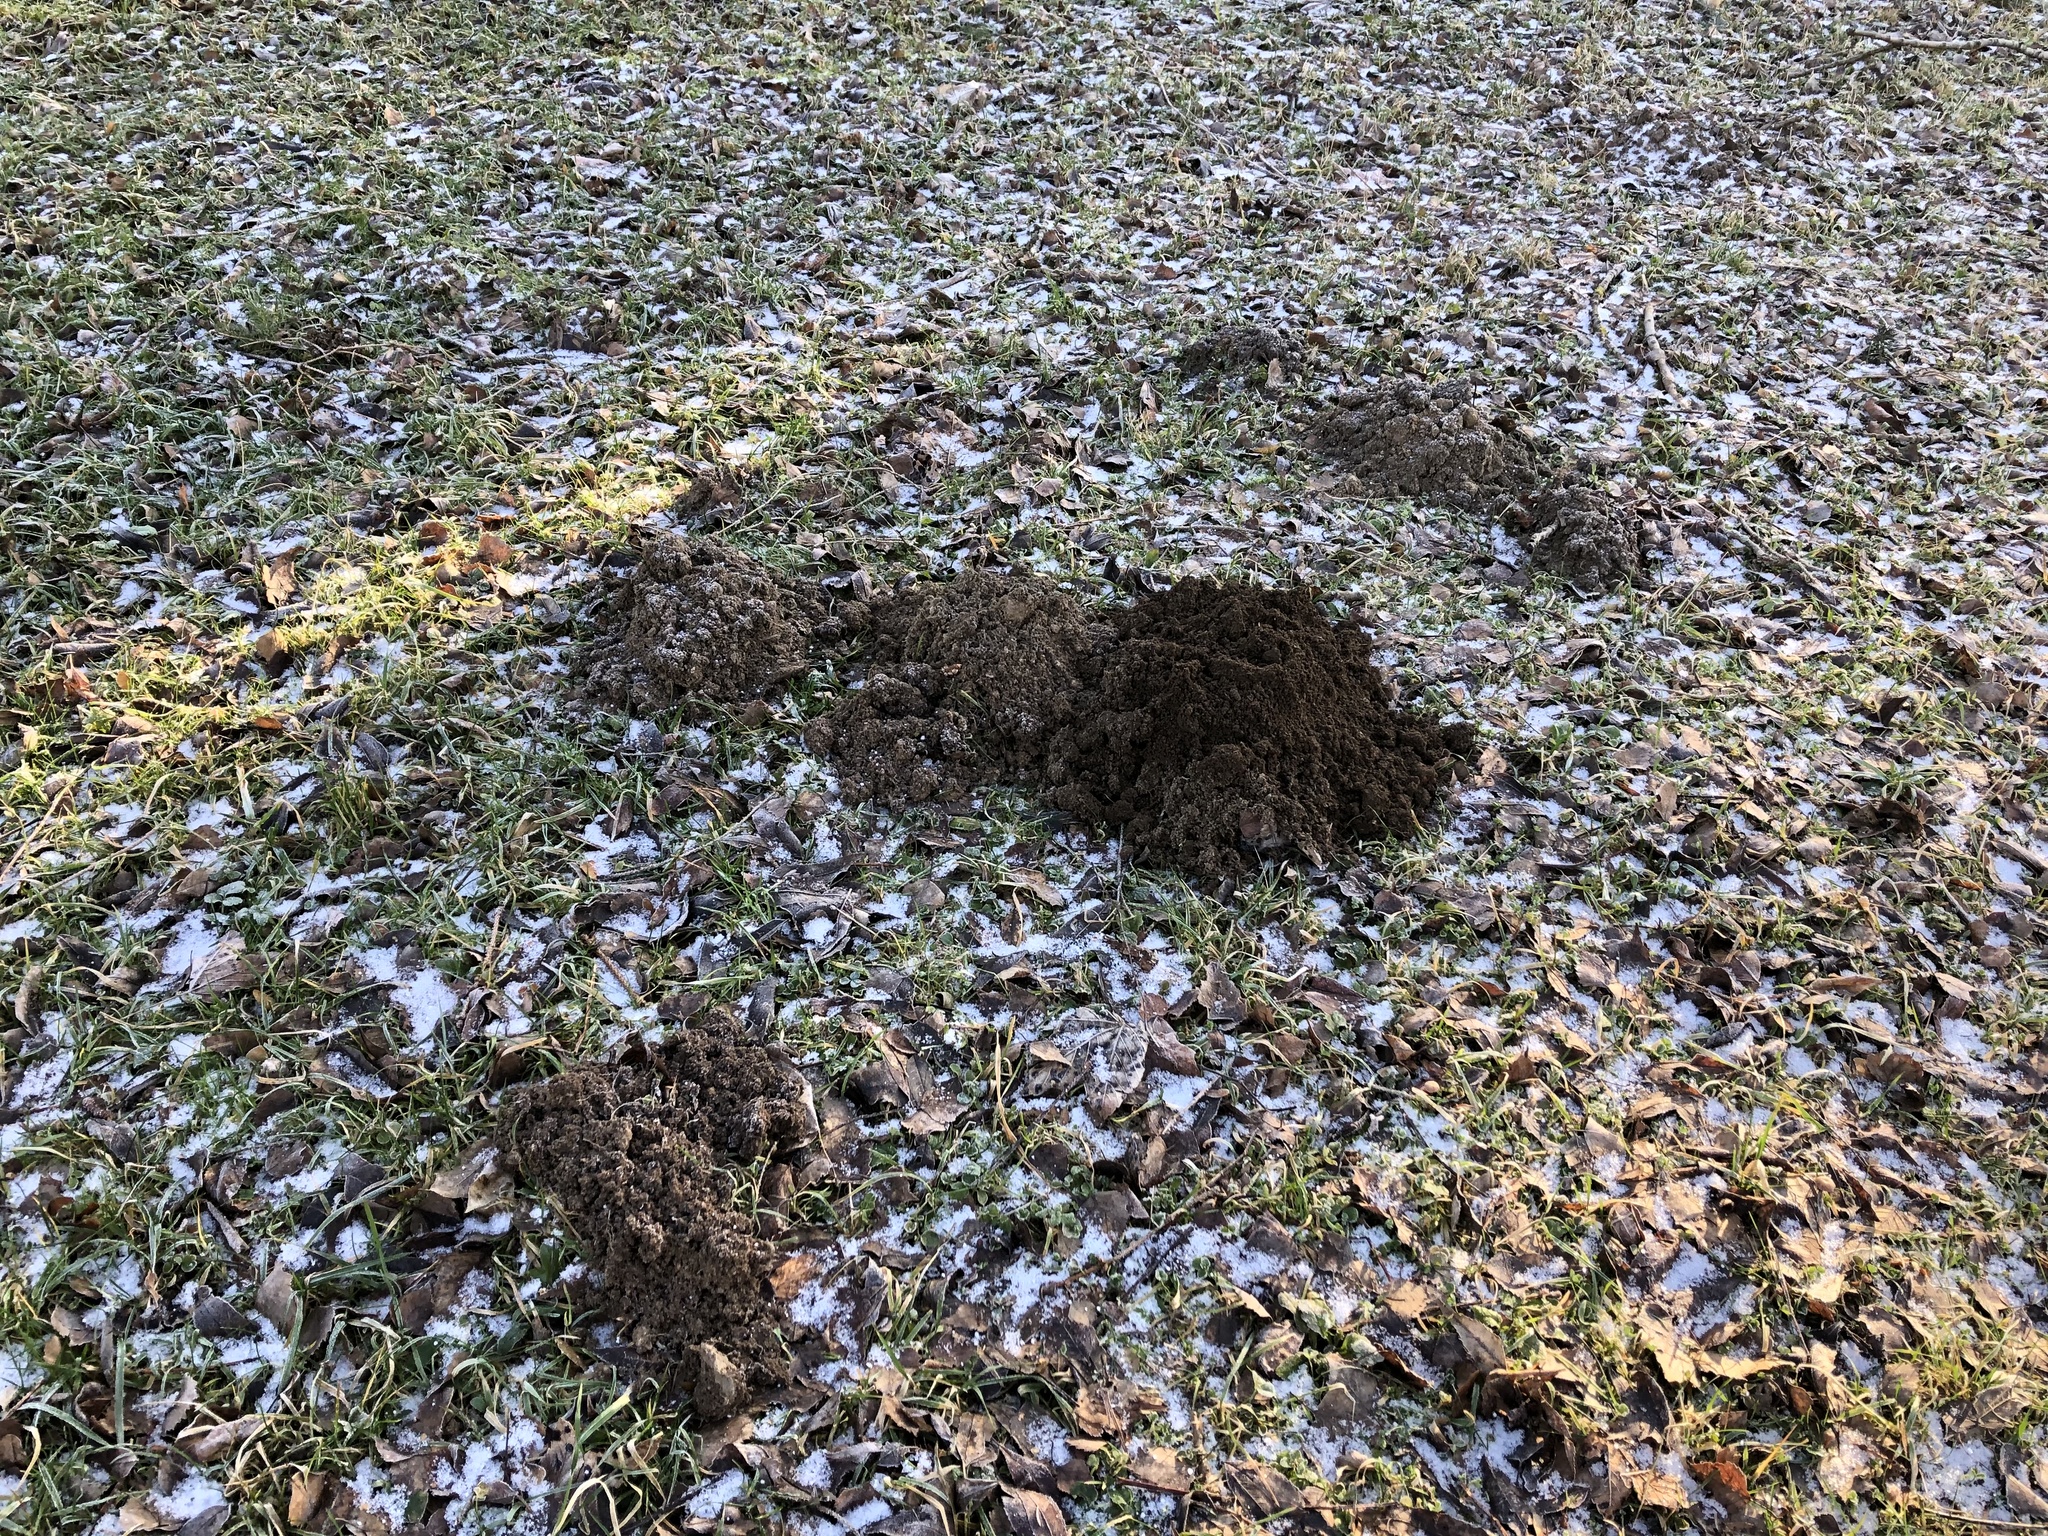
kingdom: Animalia
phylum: Chordata
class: Mammalia
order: Soricomorpha
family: Talpidae
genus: Talpa
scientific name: Talpa europaea
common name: European mole
